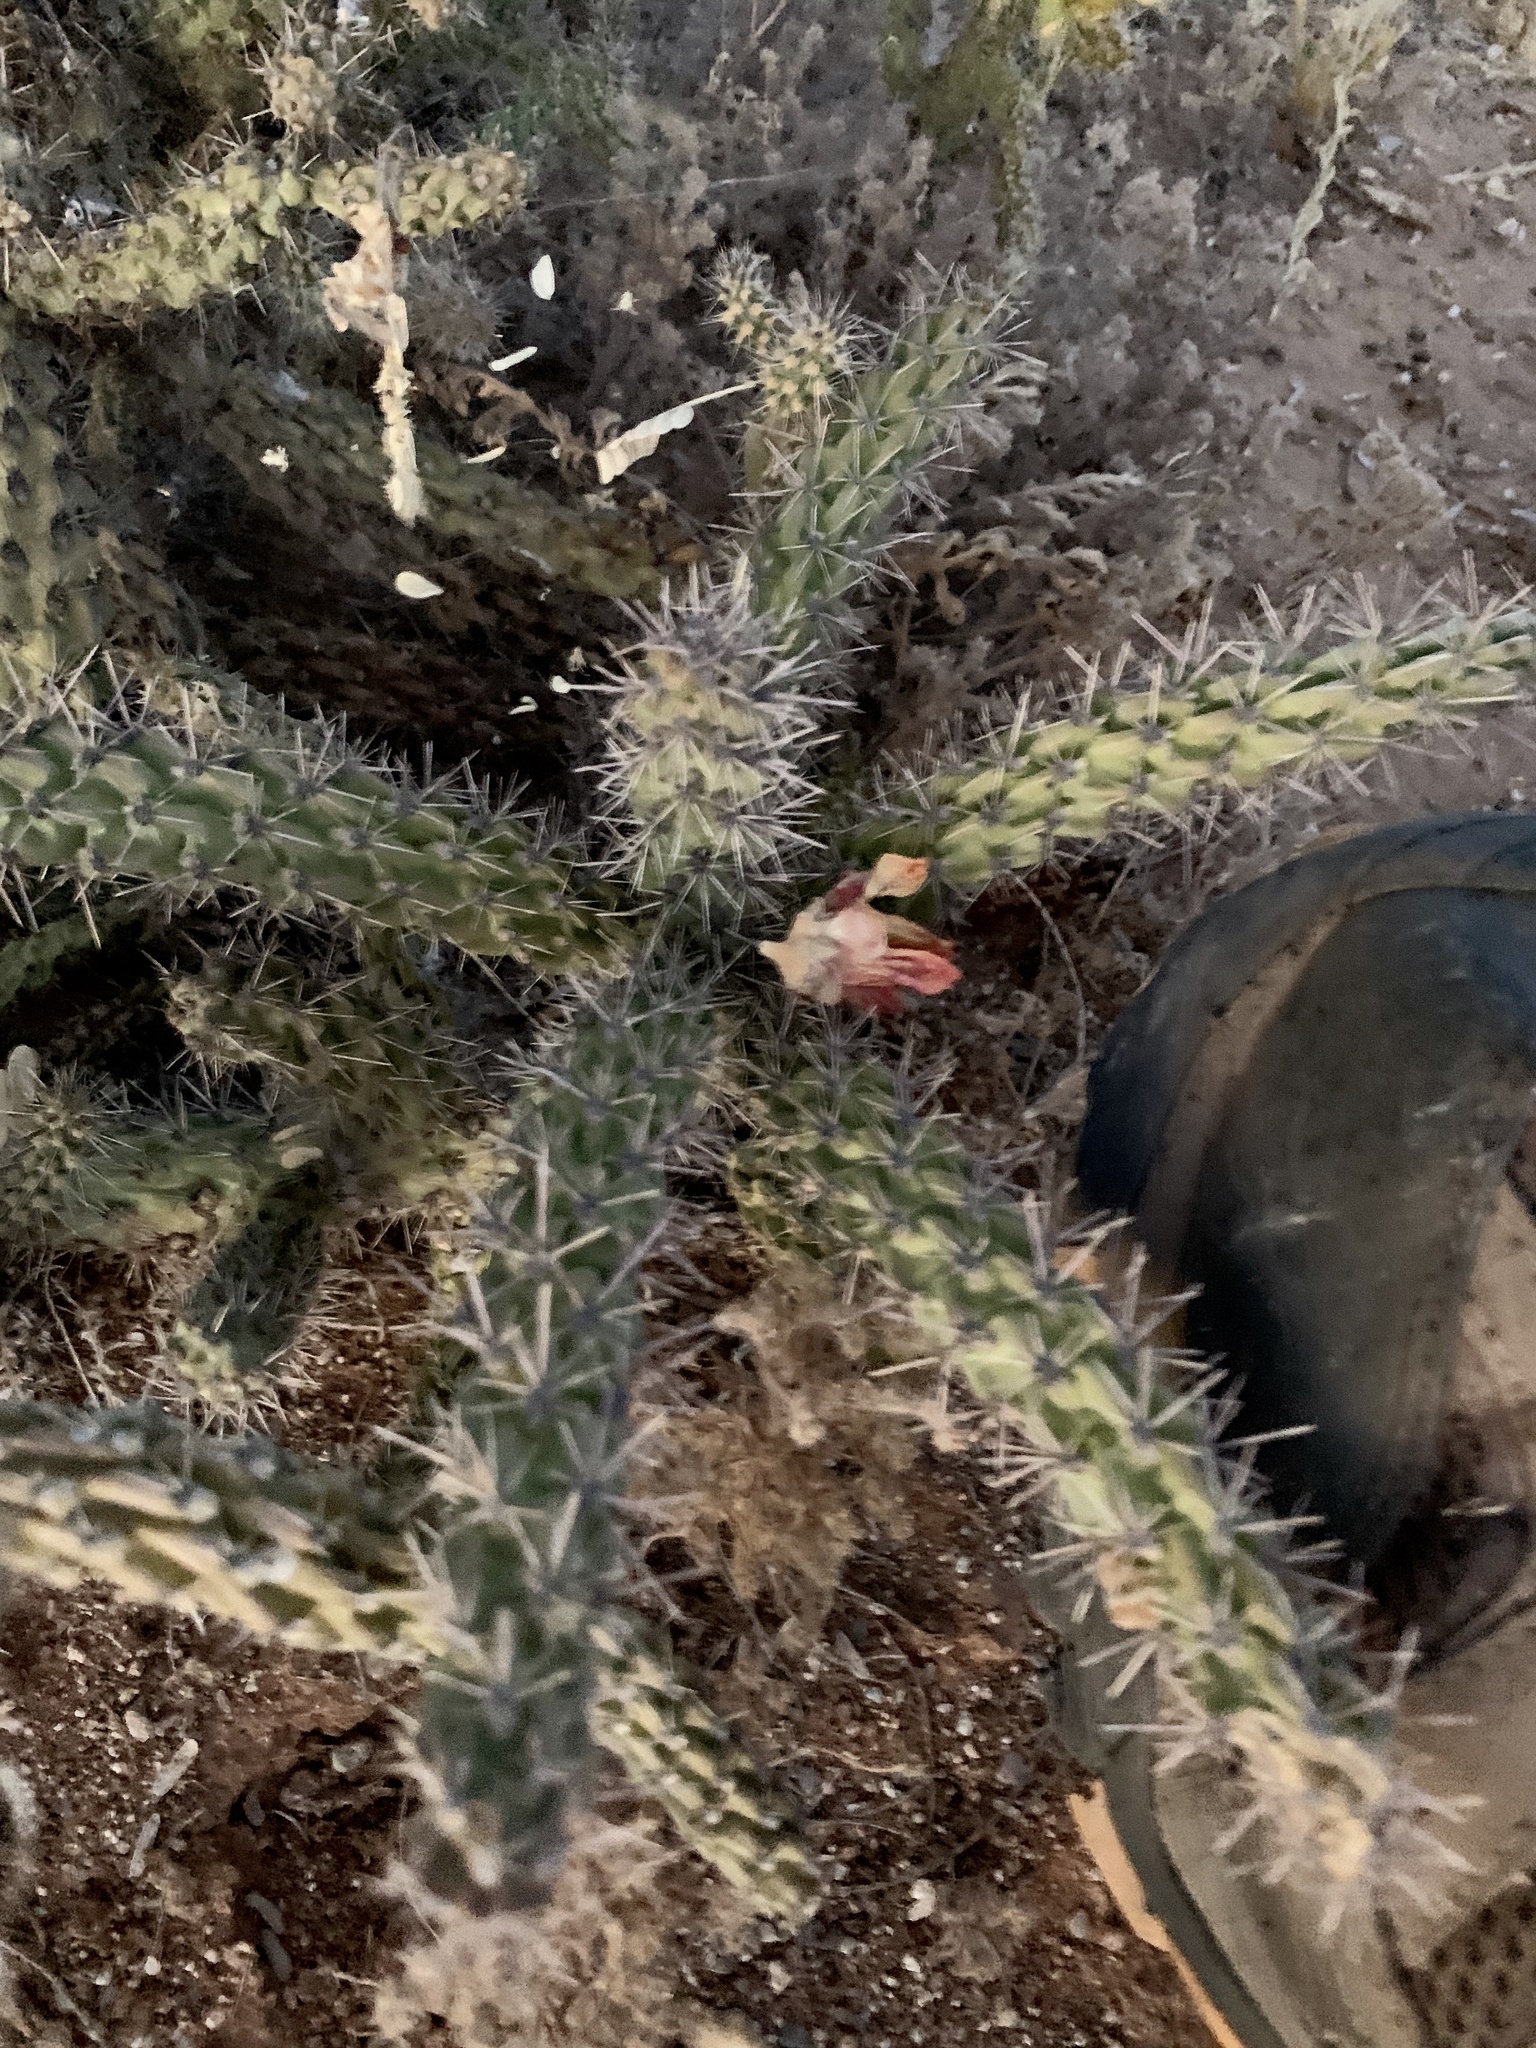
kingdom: Plantae
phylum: Tracheophyta
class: Magnoliopsida
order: Caryophyllales
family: Cactaceae
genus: Cylindropuntia
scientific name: Cylindropuntia imbricata
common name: Candelabrum cactus
